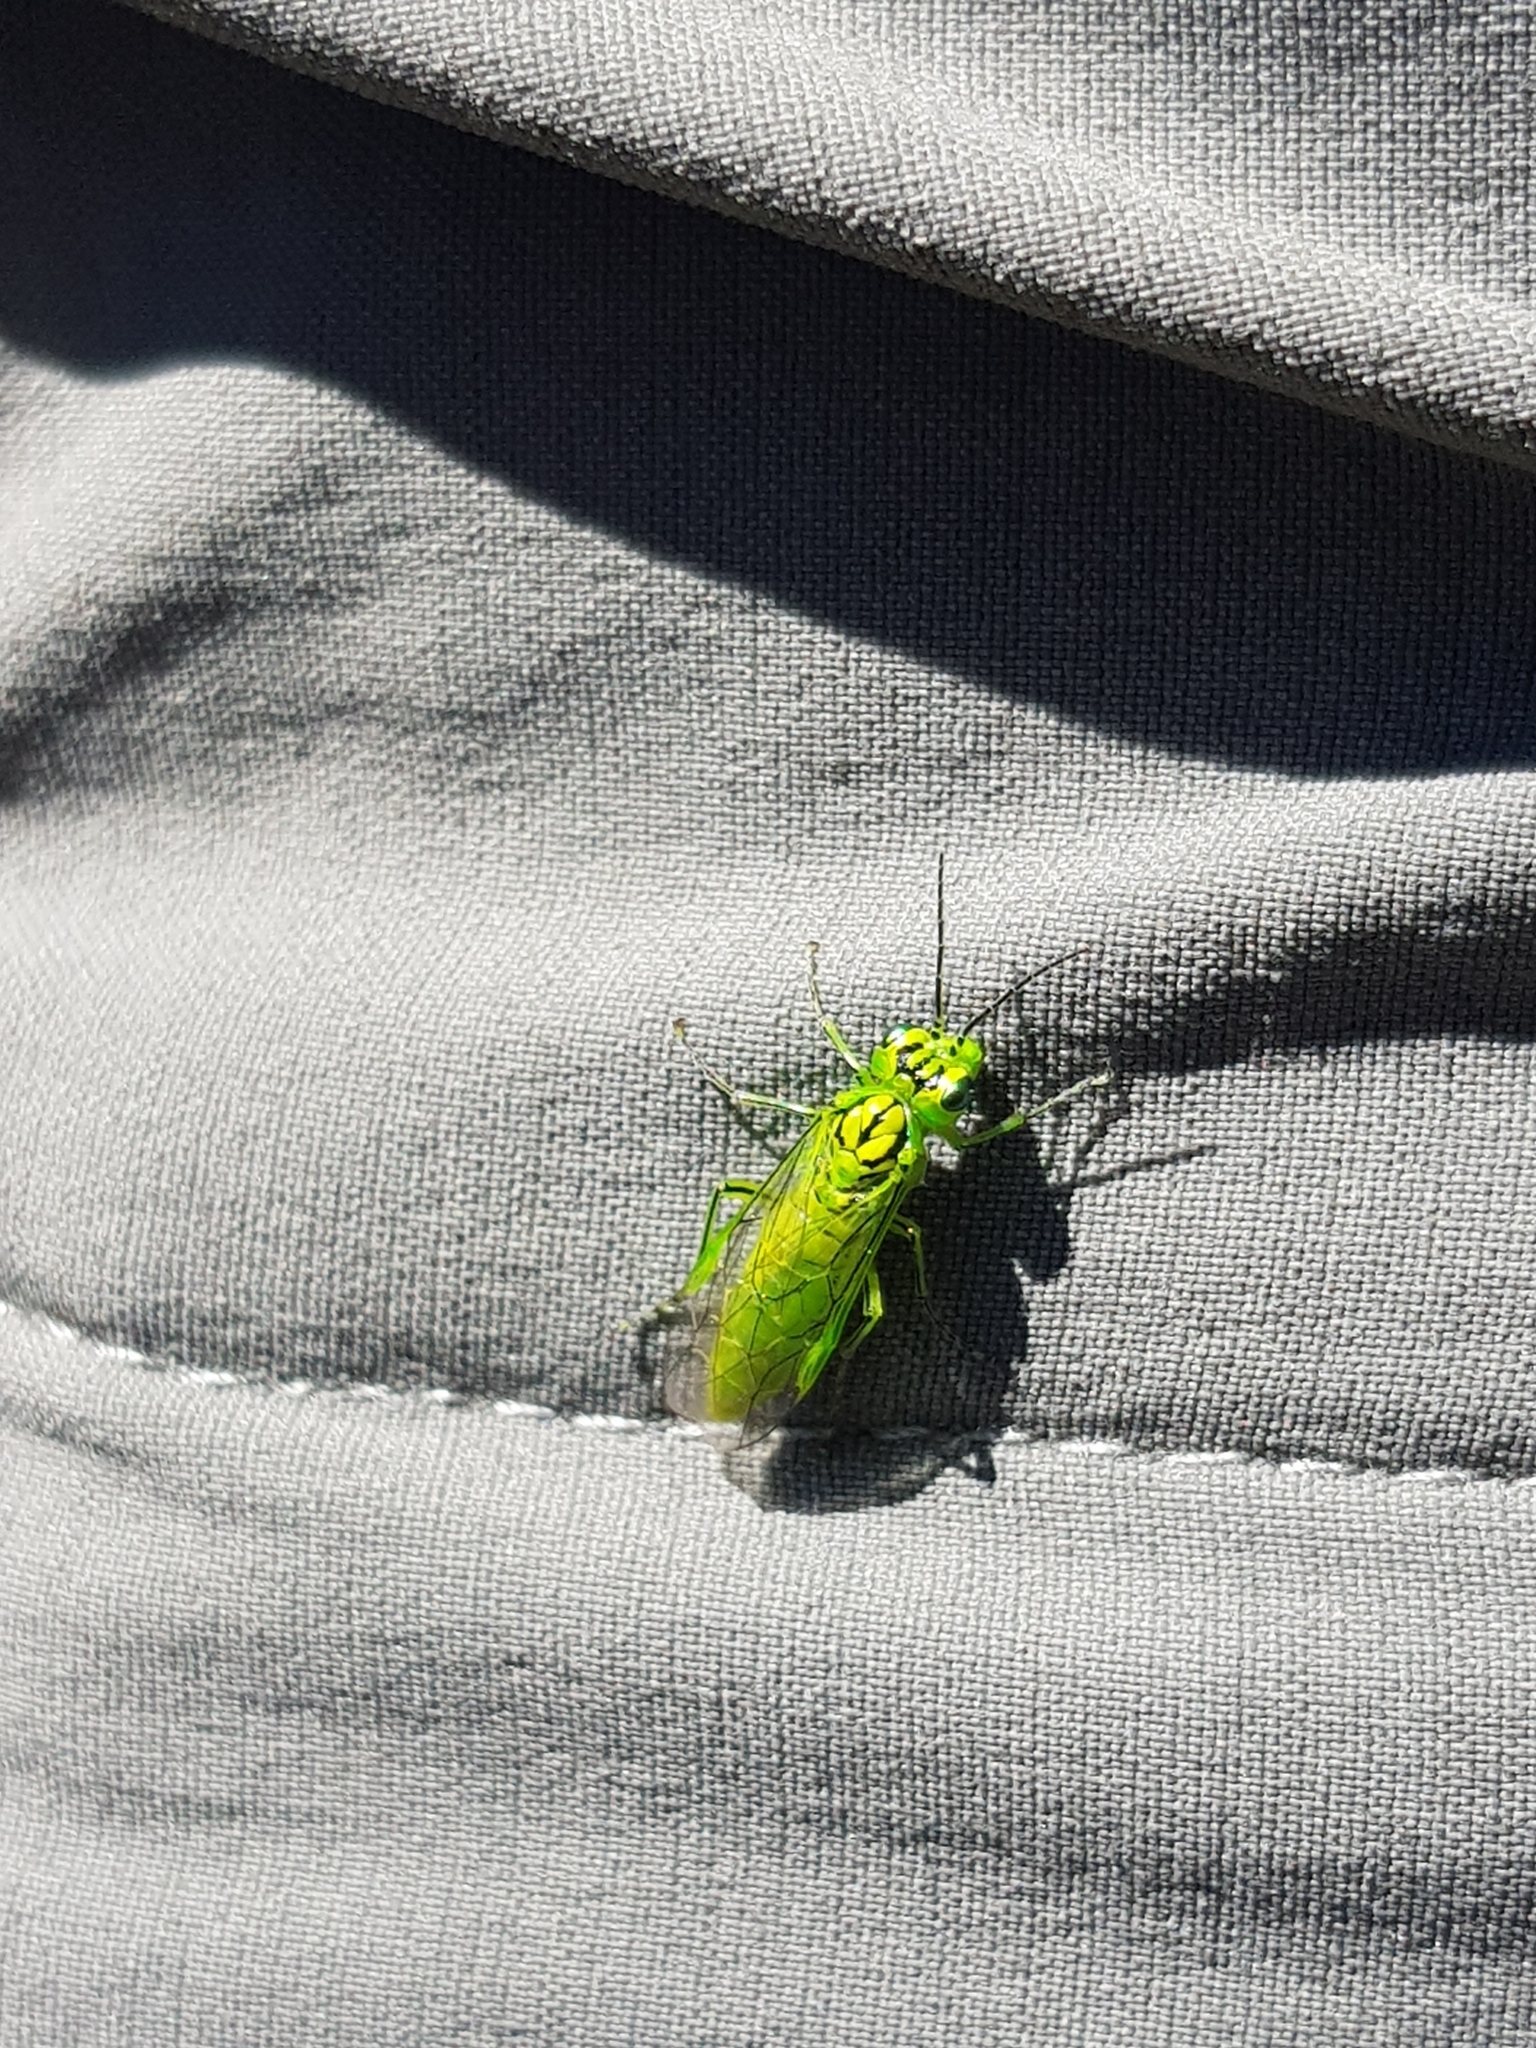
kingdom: Animalia
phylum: Arthropoda
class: Insecta
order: Hymenoptera
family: Tenthredinidae
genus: Rhogogaster
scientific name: Rhogogaster punctulata
